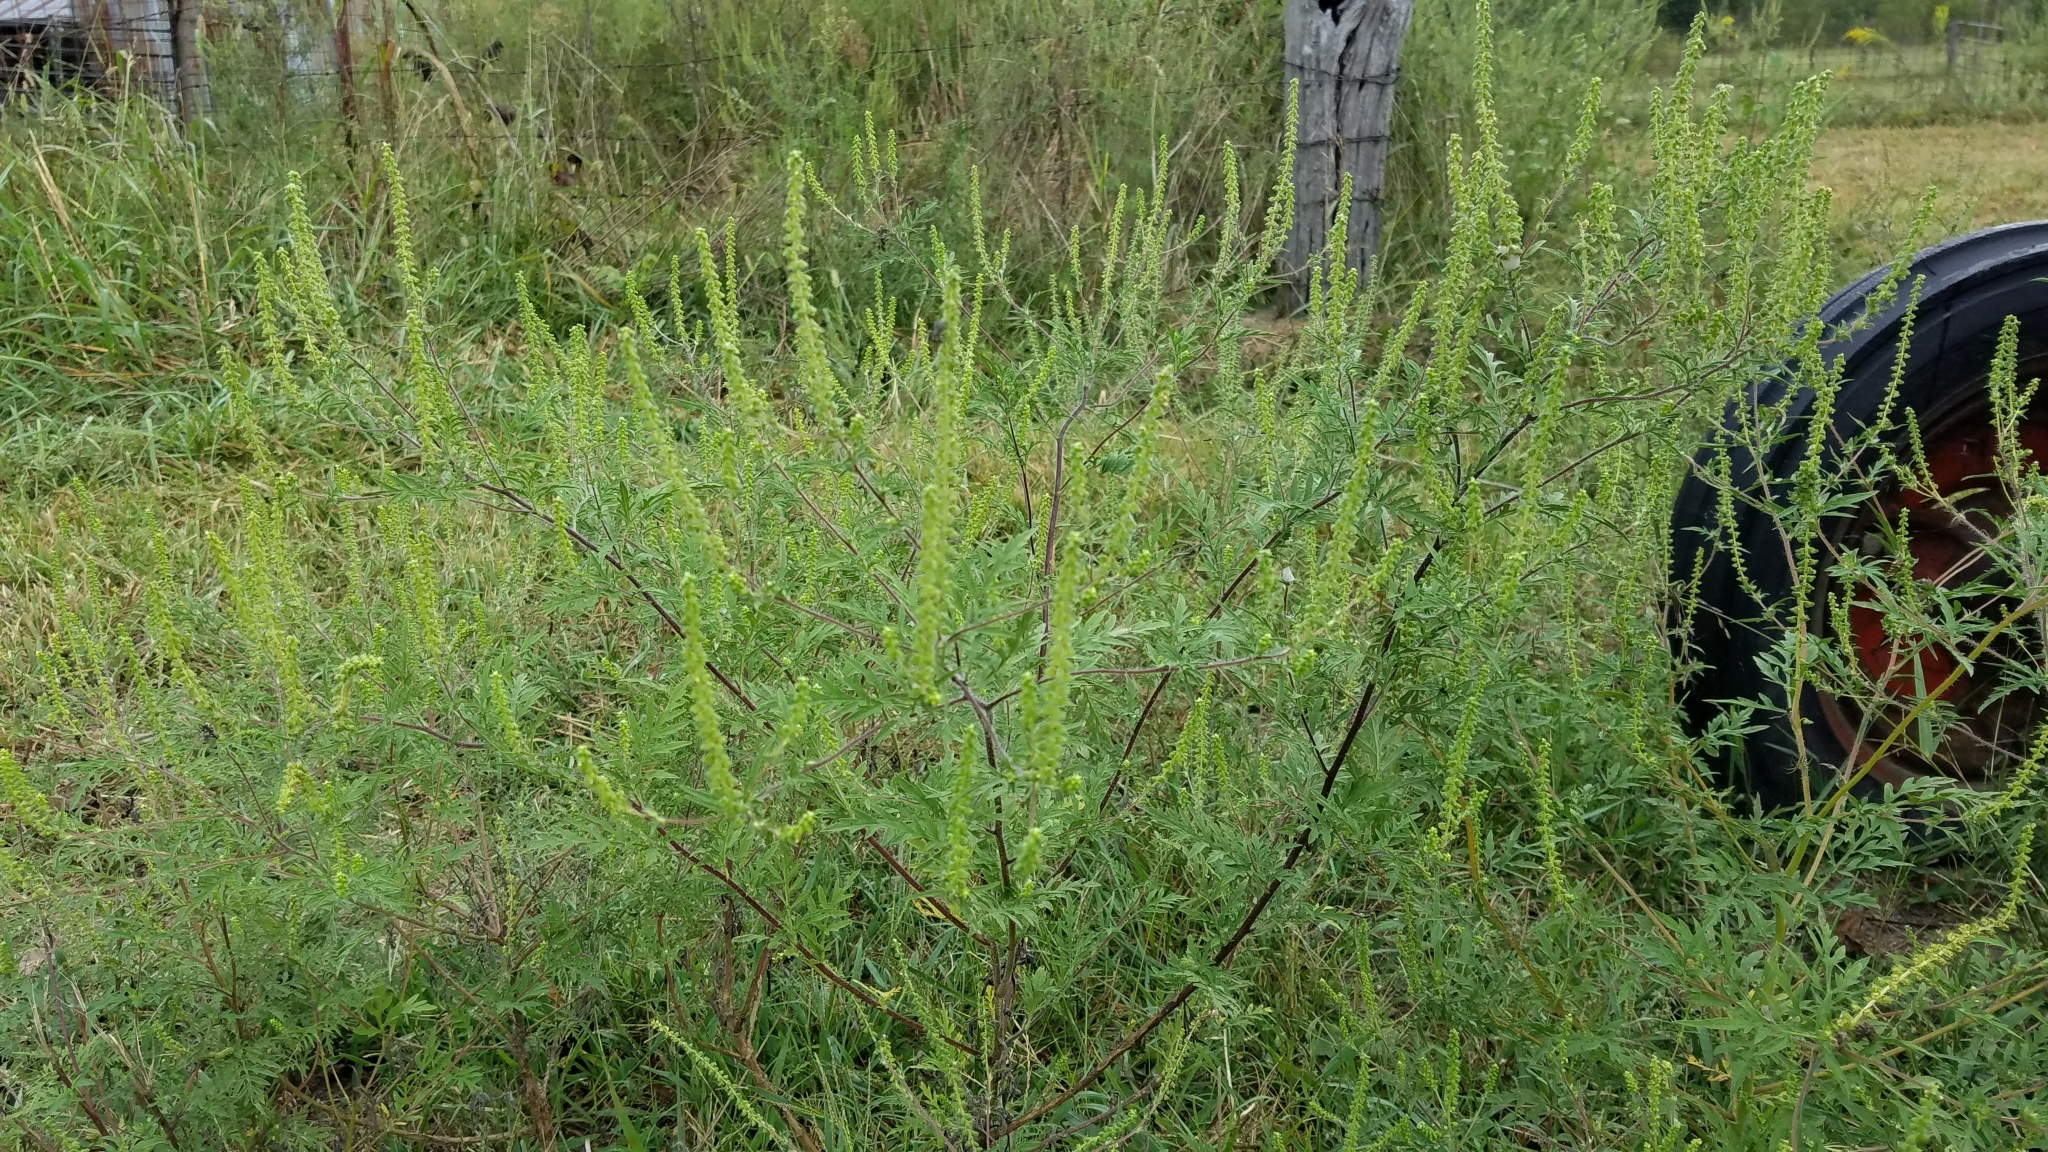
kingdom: Plantae
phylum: Tracheophyta
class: Magnoliopsida
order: Asterales
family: Asteraceae
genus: Ambrosia
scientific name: Ambrosia artemisiifolia
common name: Annual ragweed
